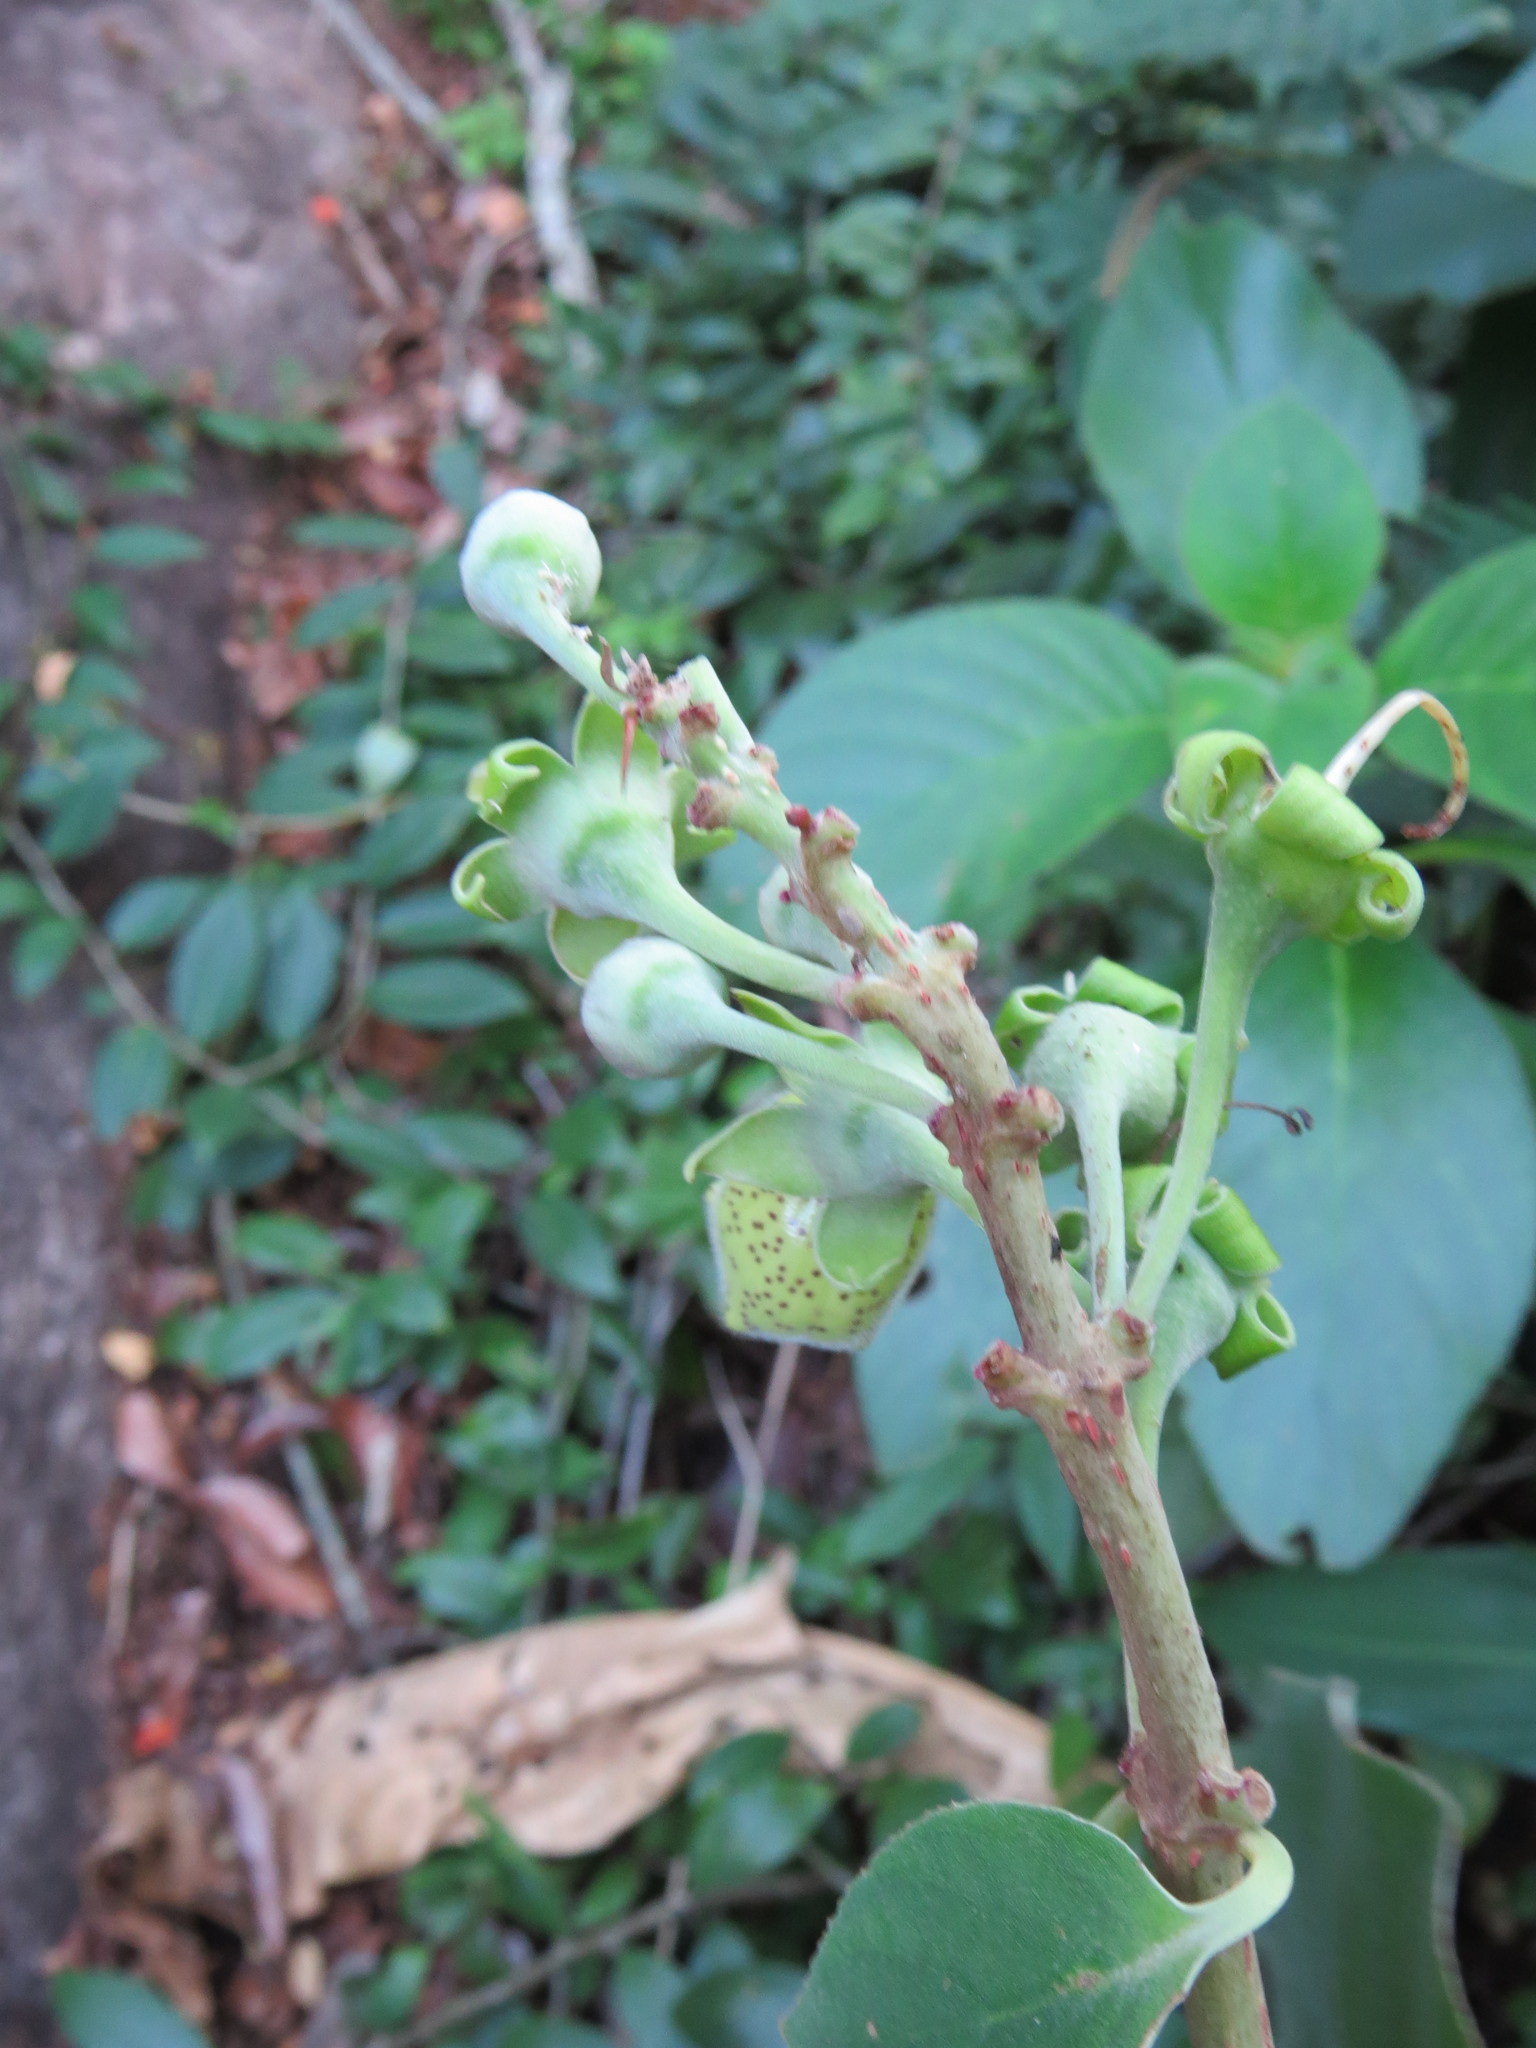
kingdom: Plantae
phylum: Tracheophyta
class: Magnoliopsida
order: Lamiales
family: Gesneriaceae
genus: Paliavana
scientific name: Paliavana prasinata
